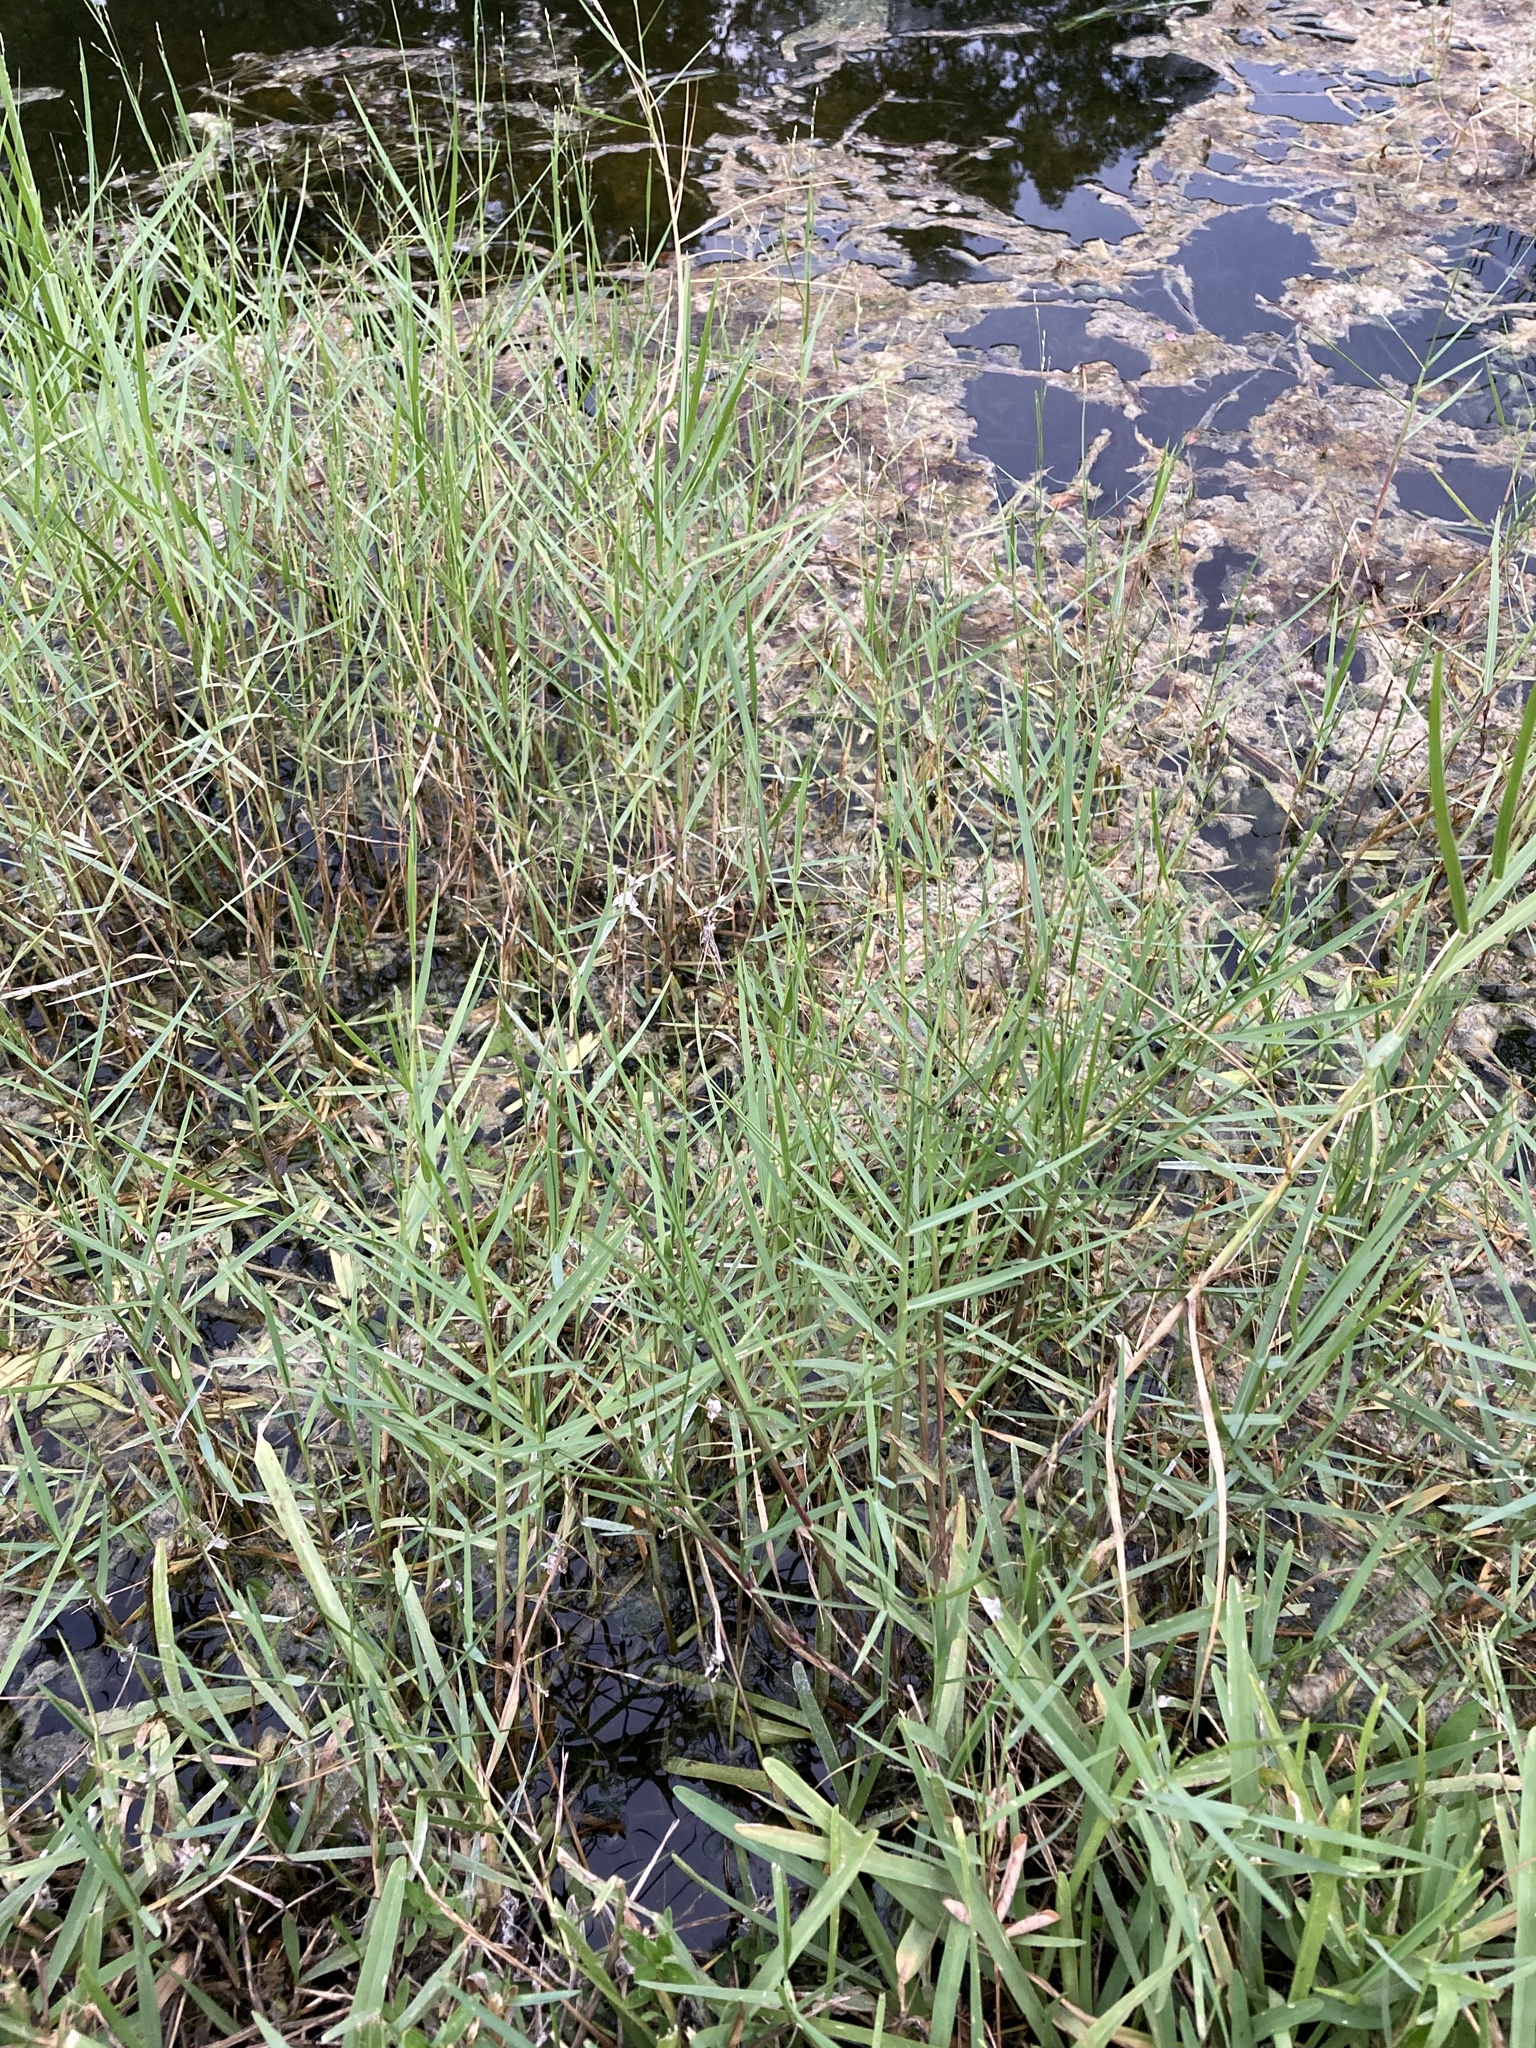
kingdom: Plantae
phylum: Tracheophyta
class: Liliopsida
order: Poales
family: Poaceae
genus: Panicum
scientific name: Panicum repens
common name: Torpedo grass
